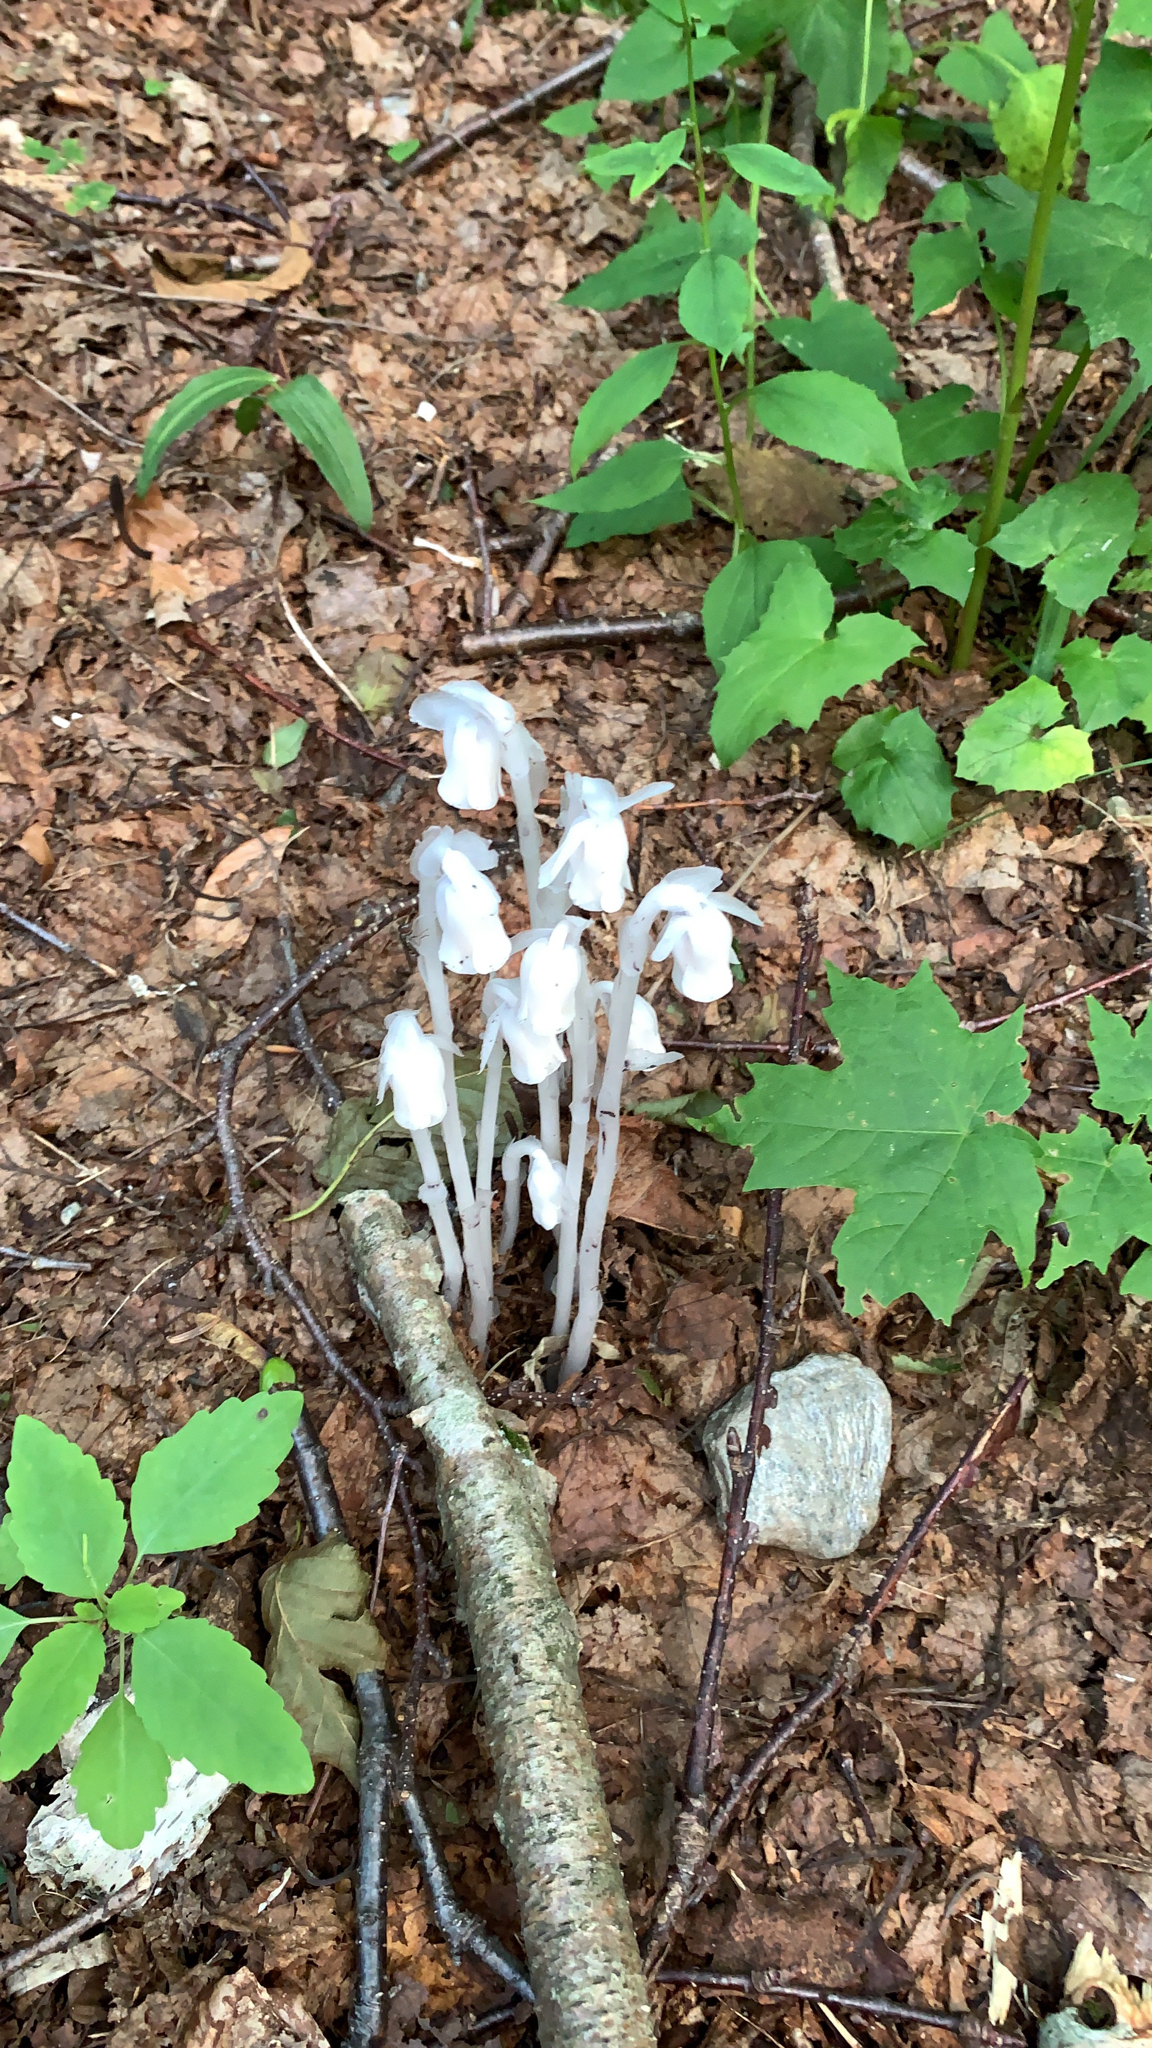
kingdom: Plantae
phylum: Tracheophyta
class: Magnoliopsida
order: Ericales
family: Ericaceae
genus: Monotropa
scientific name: Monotropa uniflora
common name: Convulsion root
